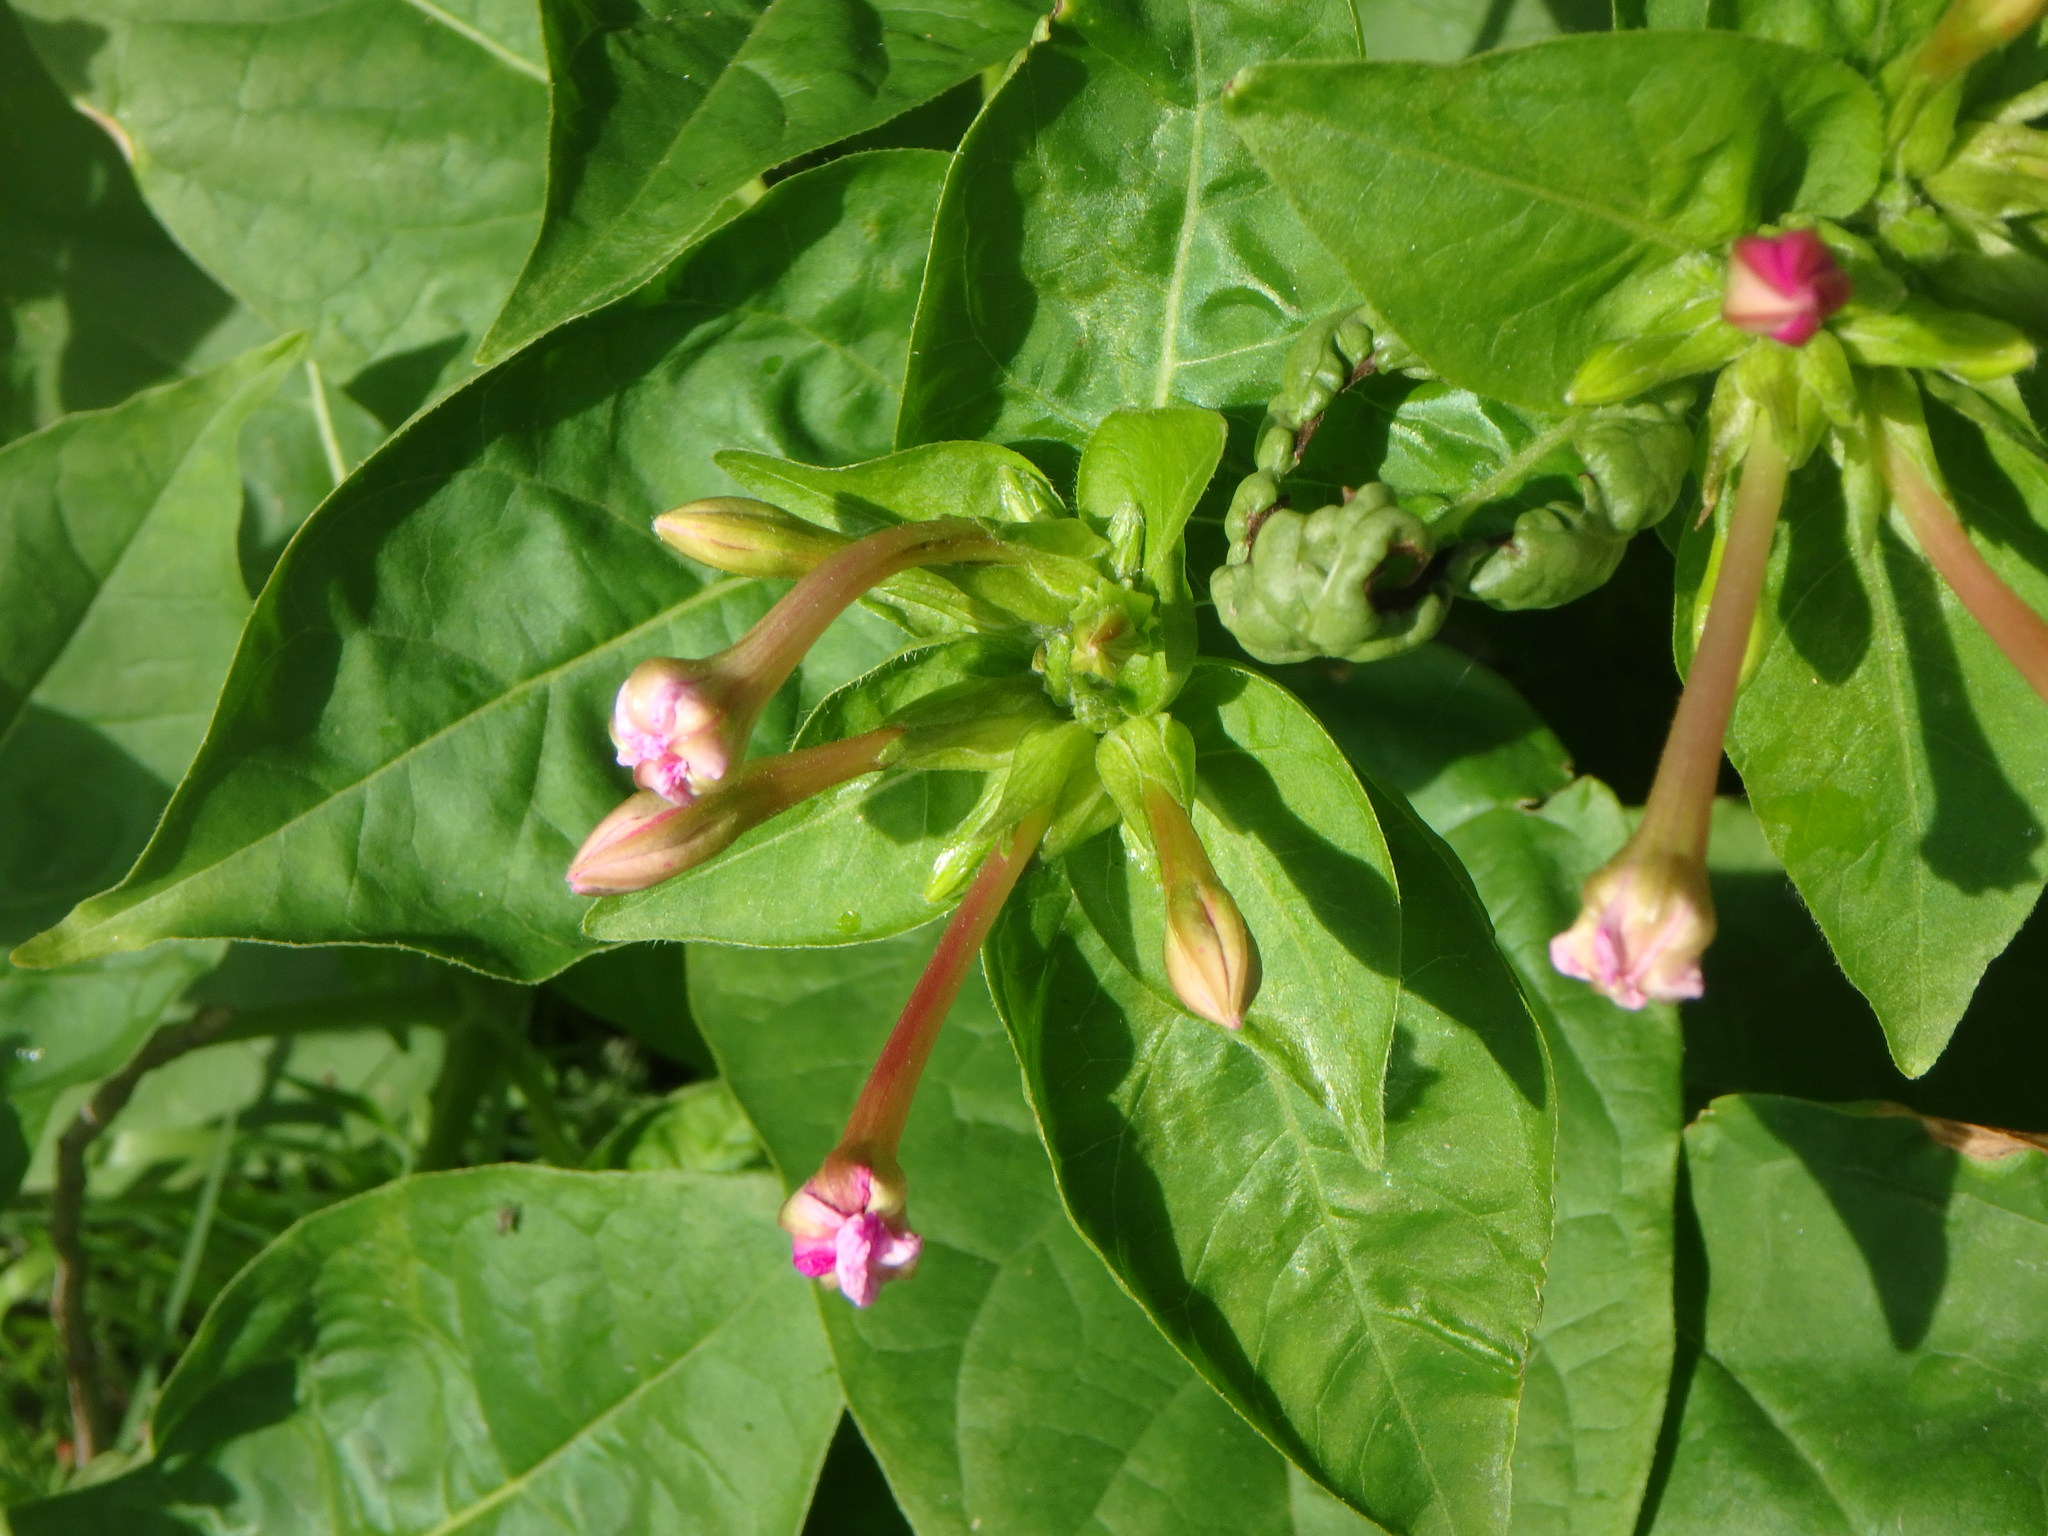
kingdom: Plantae
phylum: Tracheophyta
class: Magnoliopsida
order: Caryophyllales
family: Nyctaginaceae
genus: Mirabilis
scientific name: Mirabilis jalapa
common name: Marvel-of-peru
